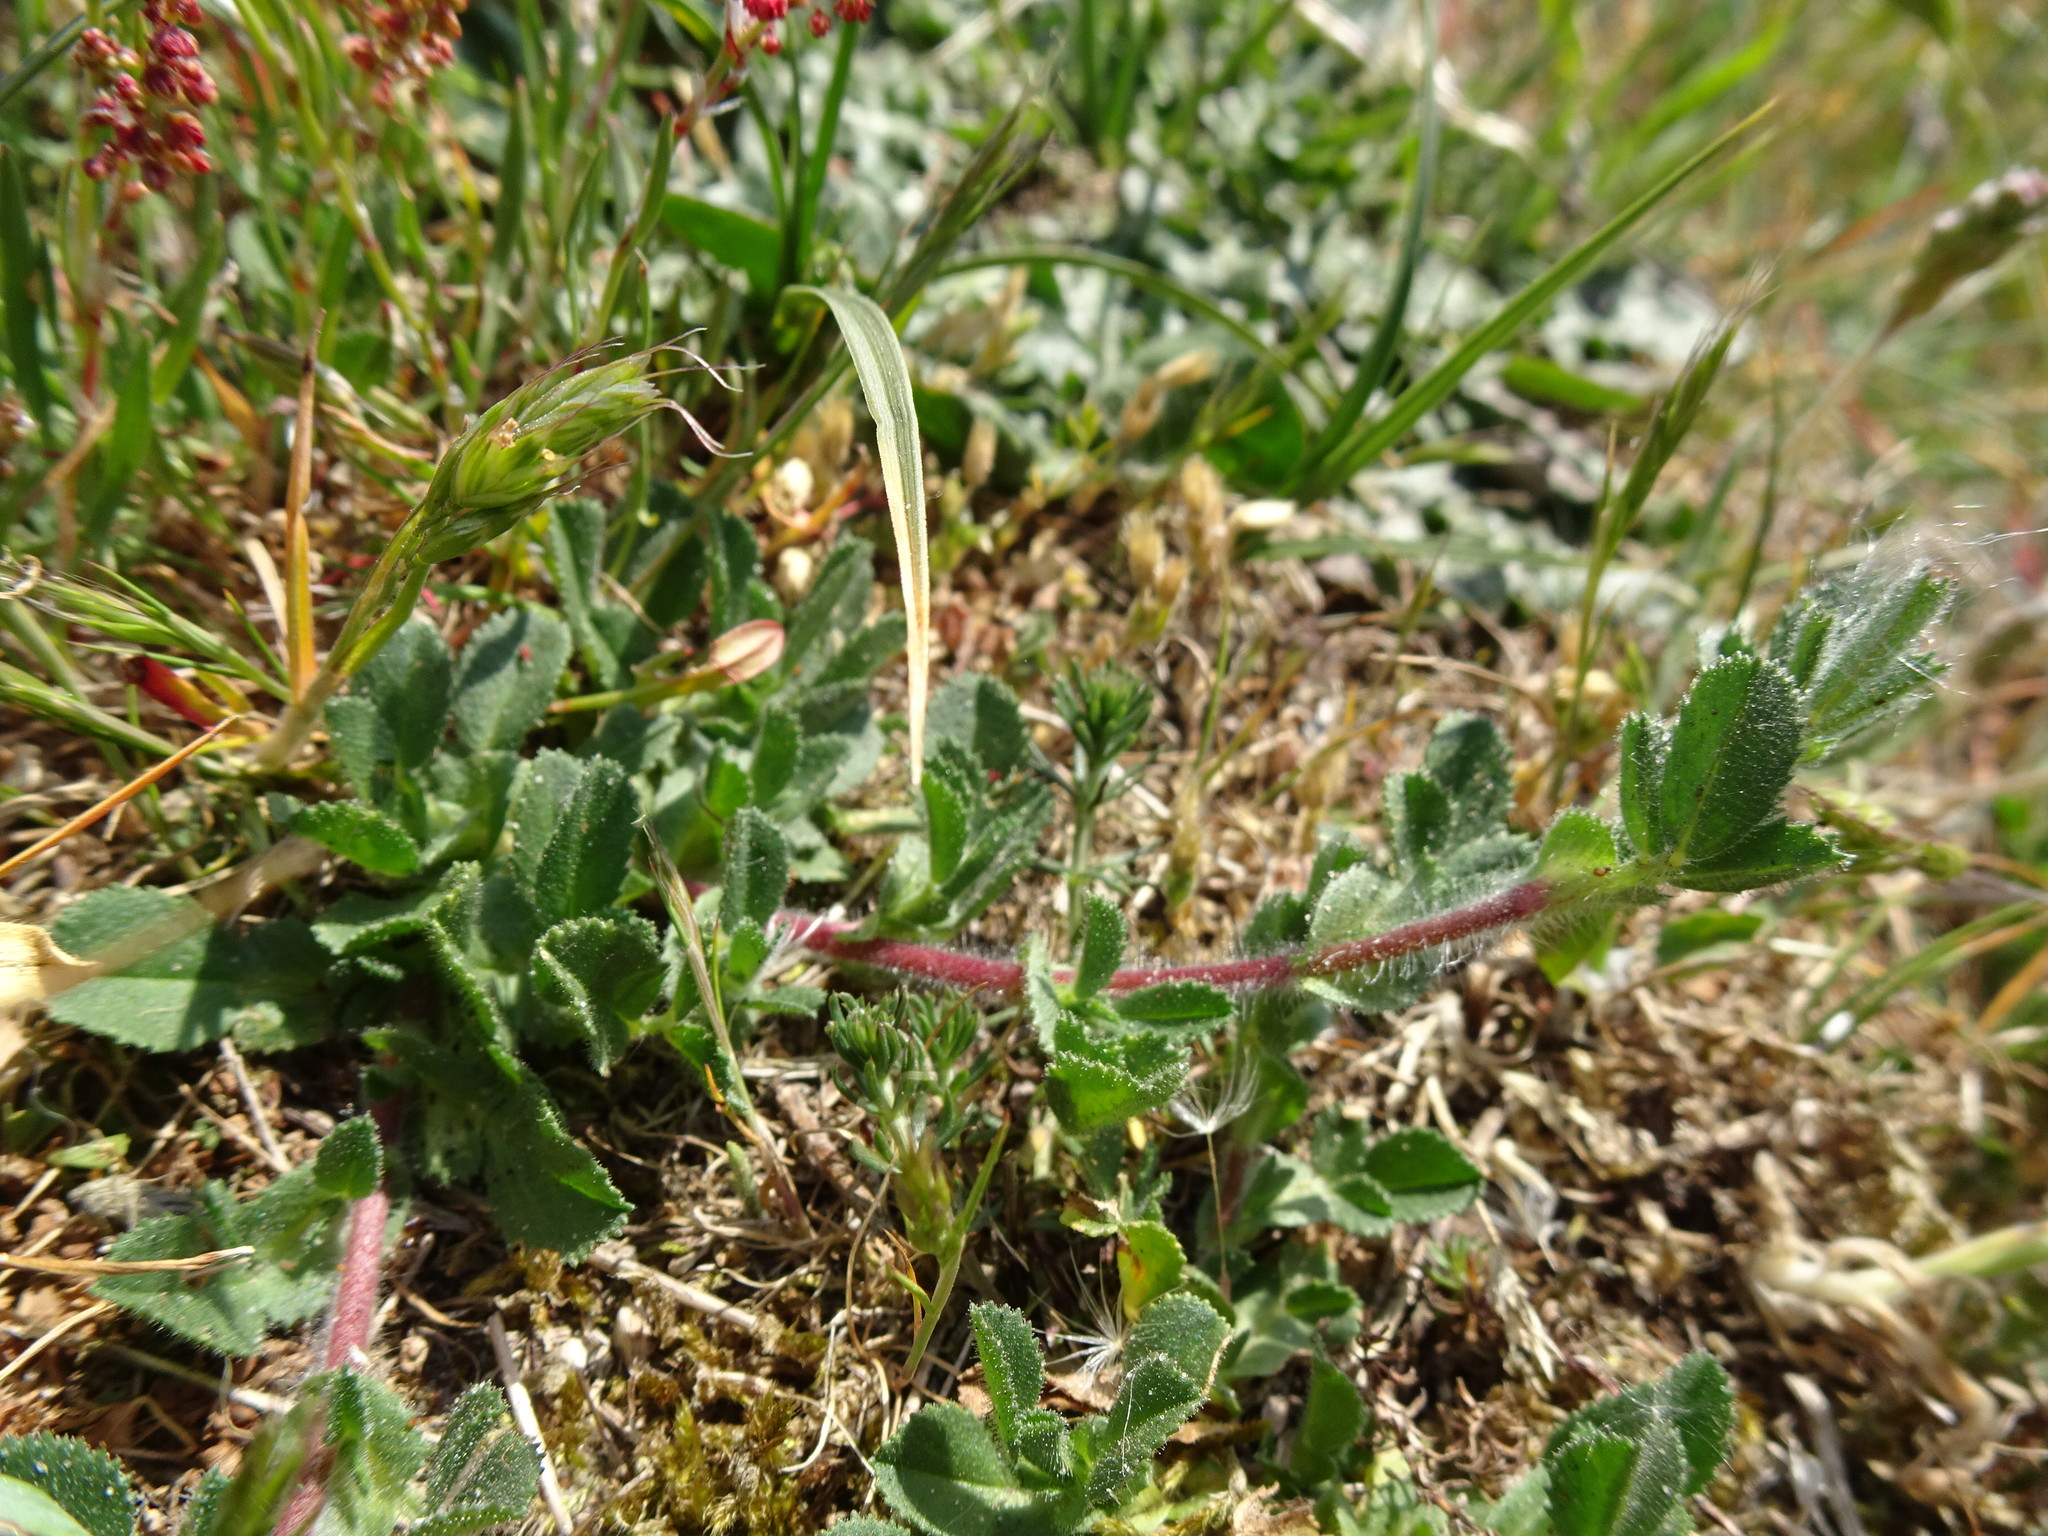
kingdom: Plantae
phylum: Tracheophyta
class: Magnoliopsida
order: Fabales
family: Fabaceae
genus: Ononis
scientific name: Ononis spinosa
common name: Spiny restharrow
